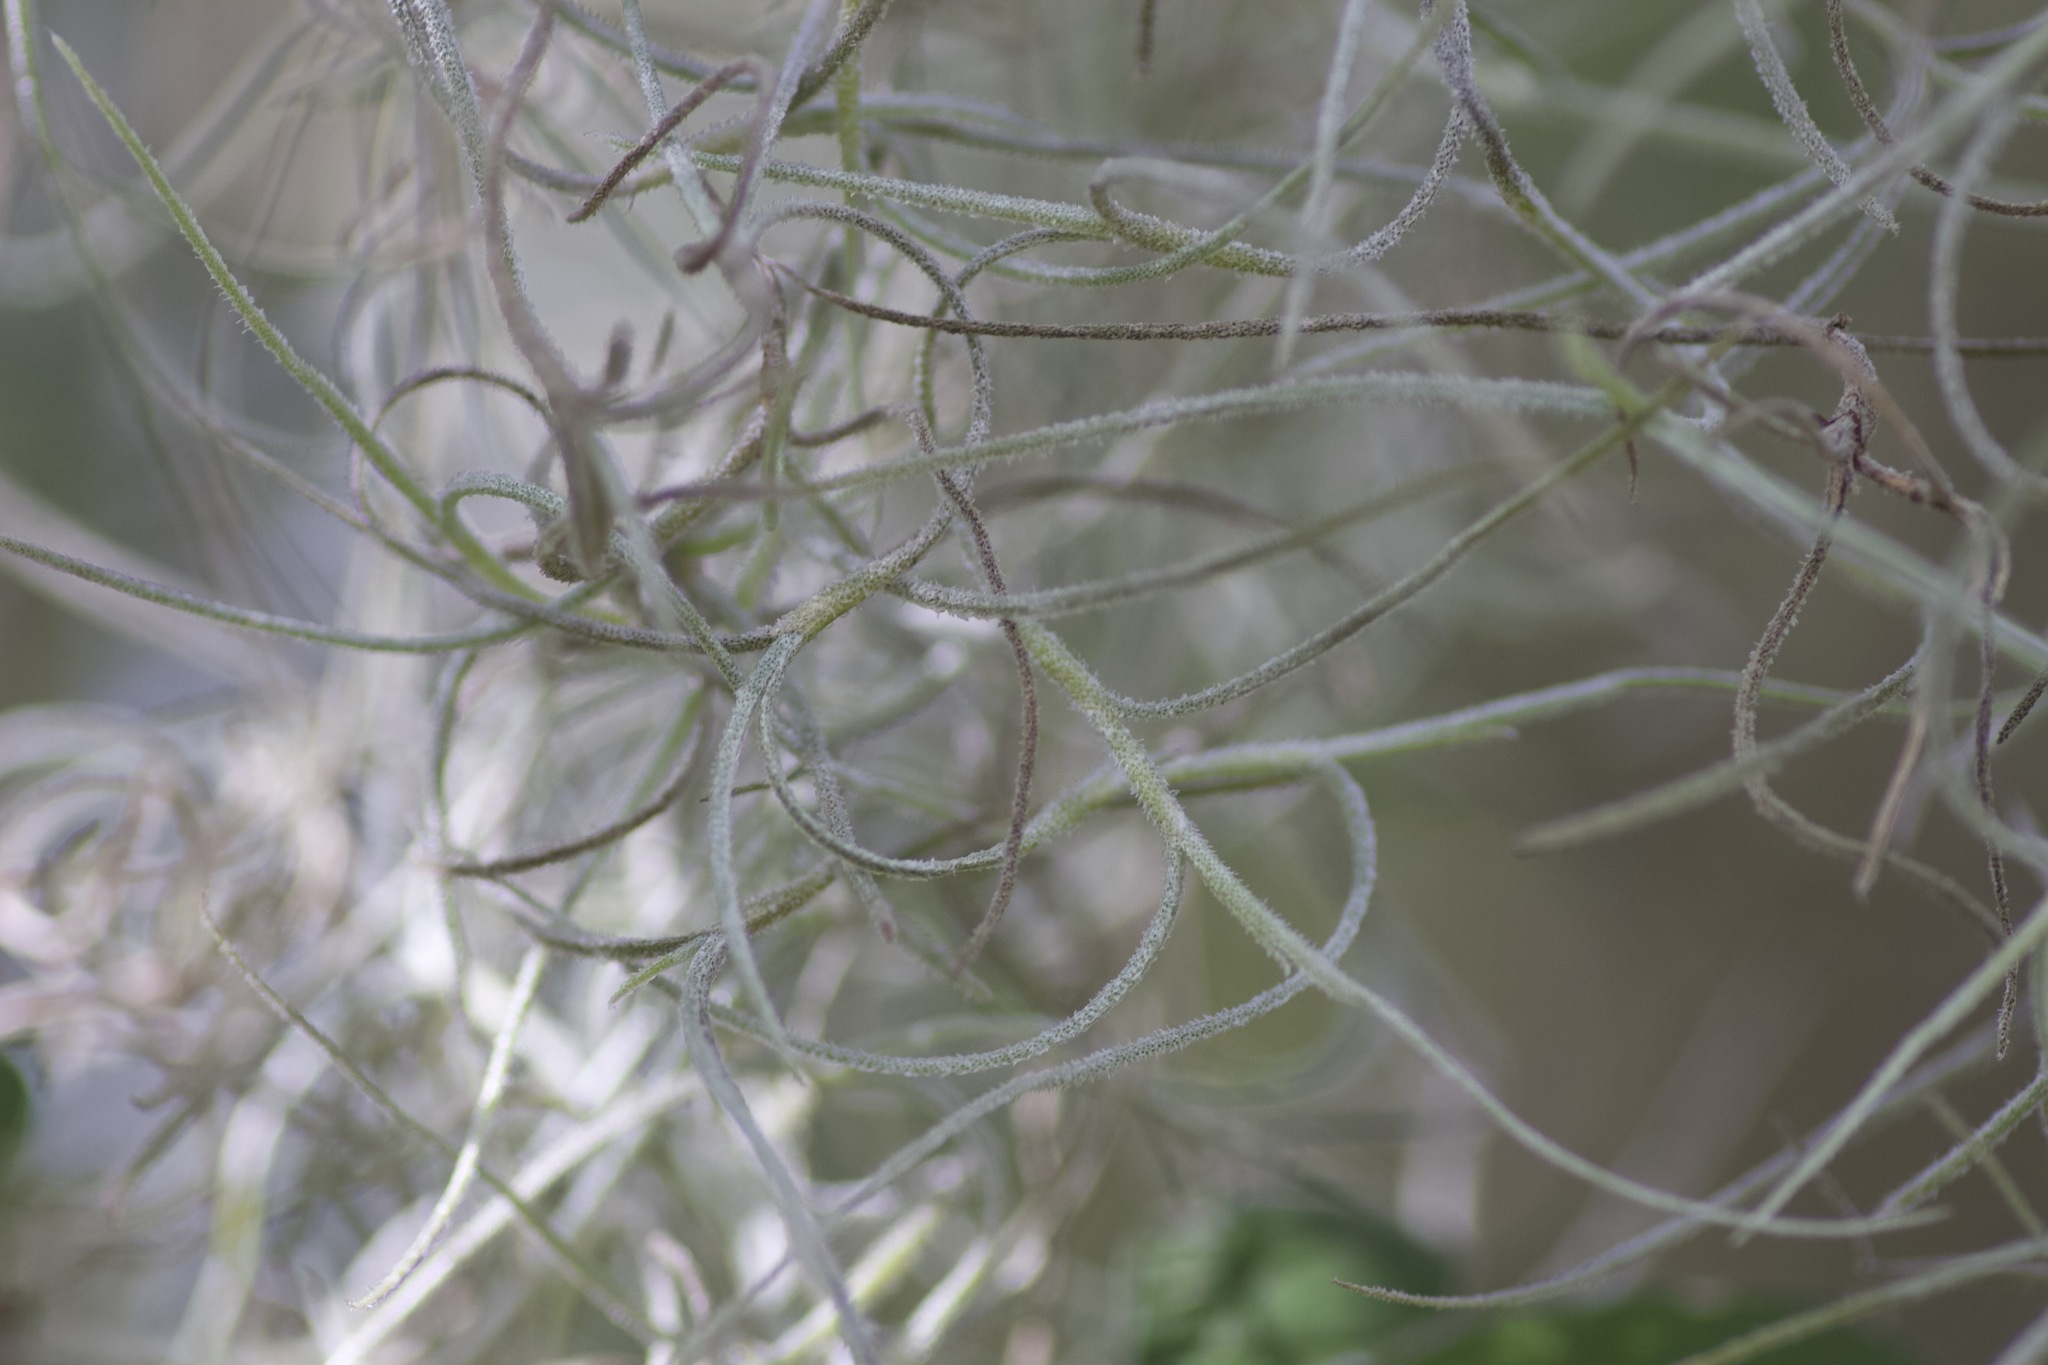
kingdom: Plantae
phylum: Tracheophyta
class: Liliopsida
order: Poales
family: Bromeliaceae
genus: Tillandsia
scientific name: Tillandsia usneoides
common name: Spanish moss
